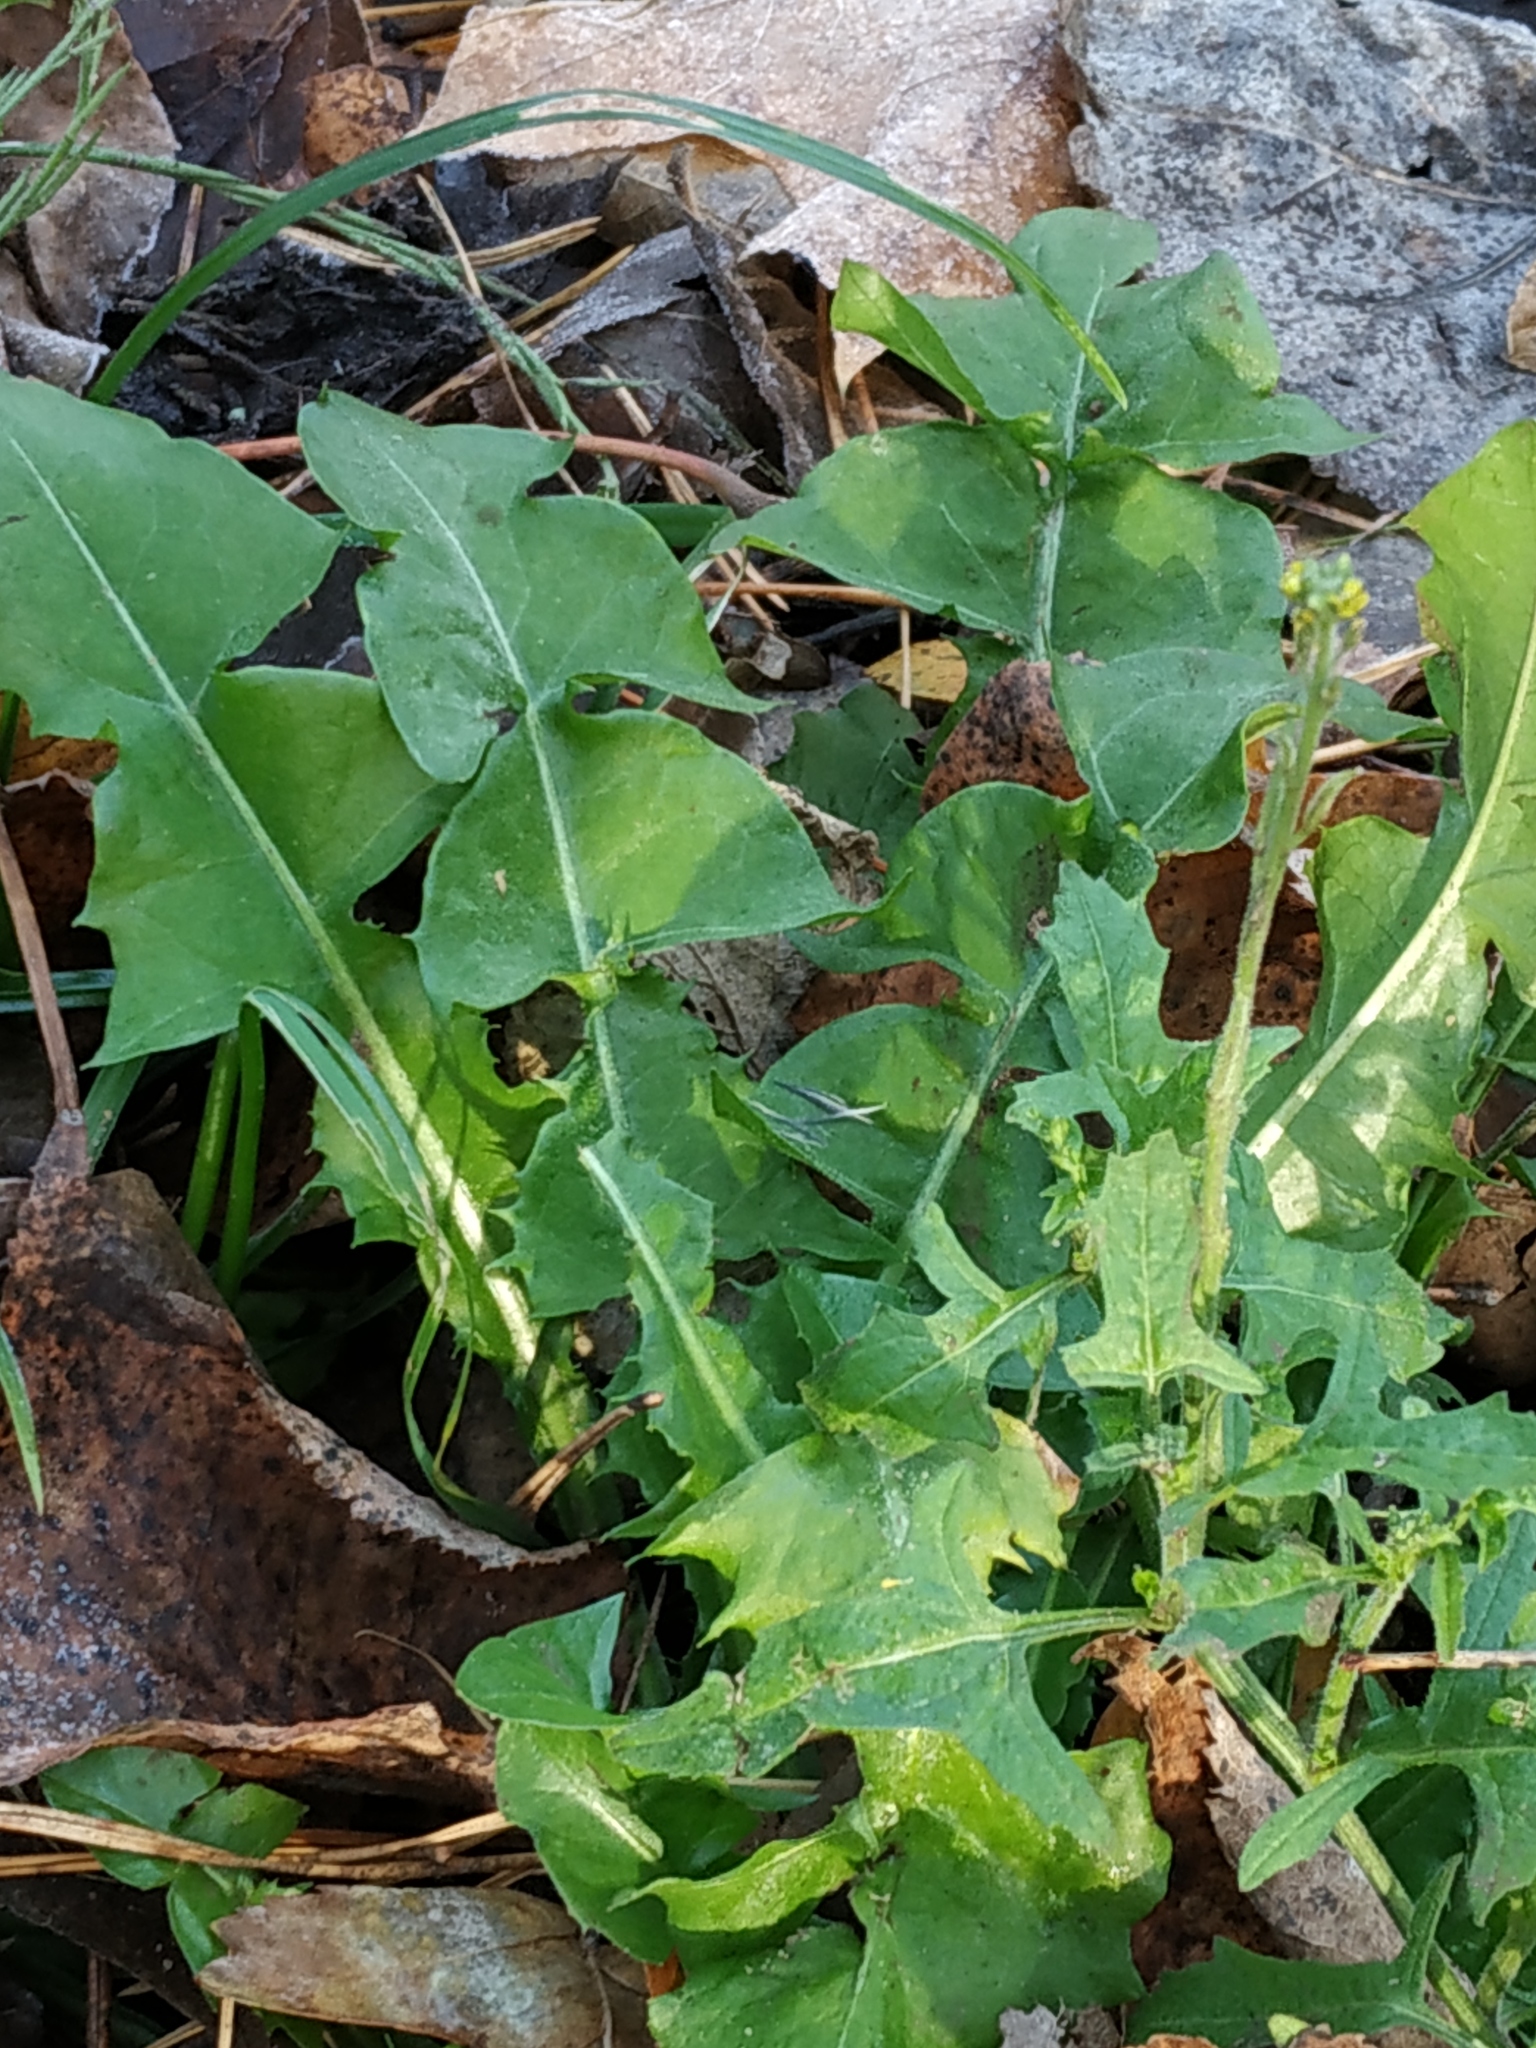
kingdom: Plantae
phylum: Tracheophyta
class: Magnoliopsida
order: Brassicales
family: Brassicaceae
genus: Sisymbrium
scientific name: Sisymbrium officinale
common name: Hedge mustard
